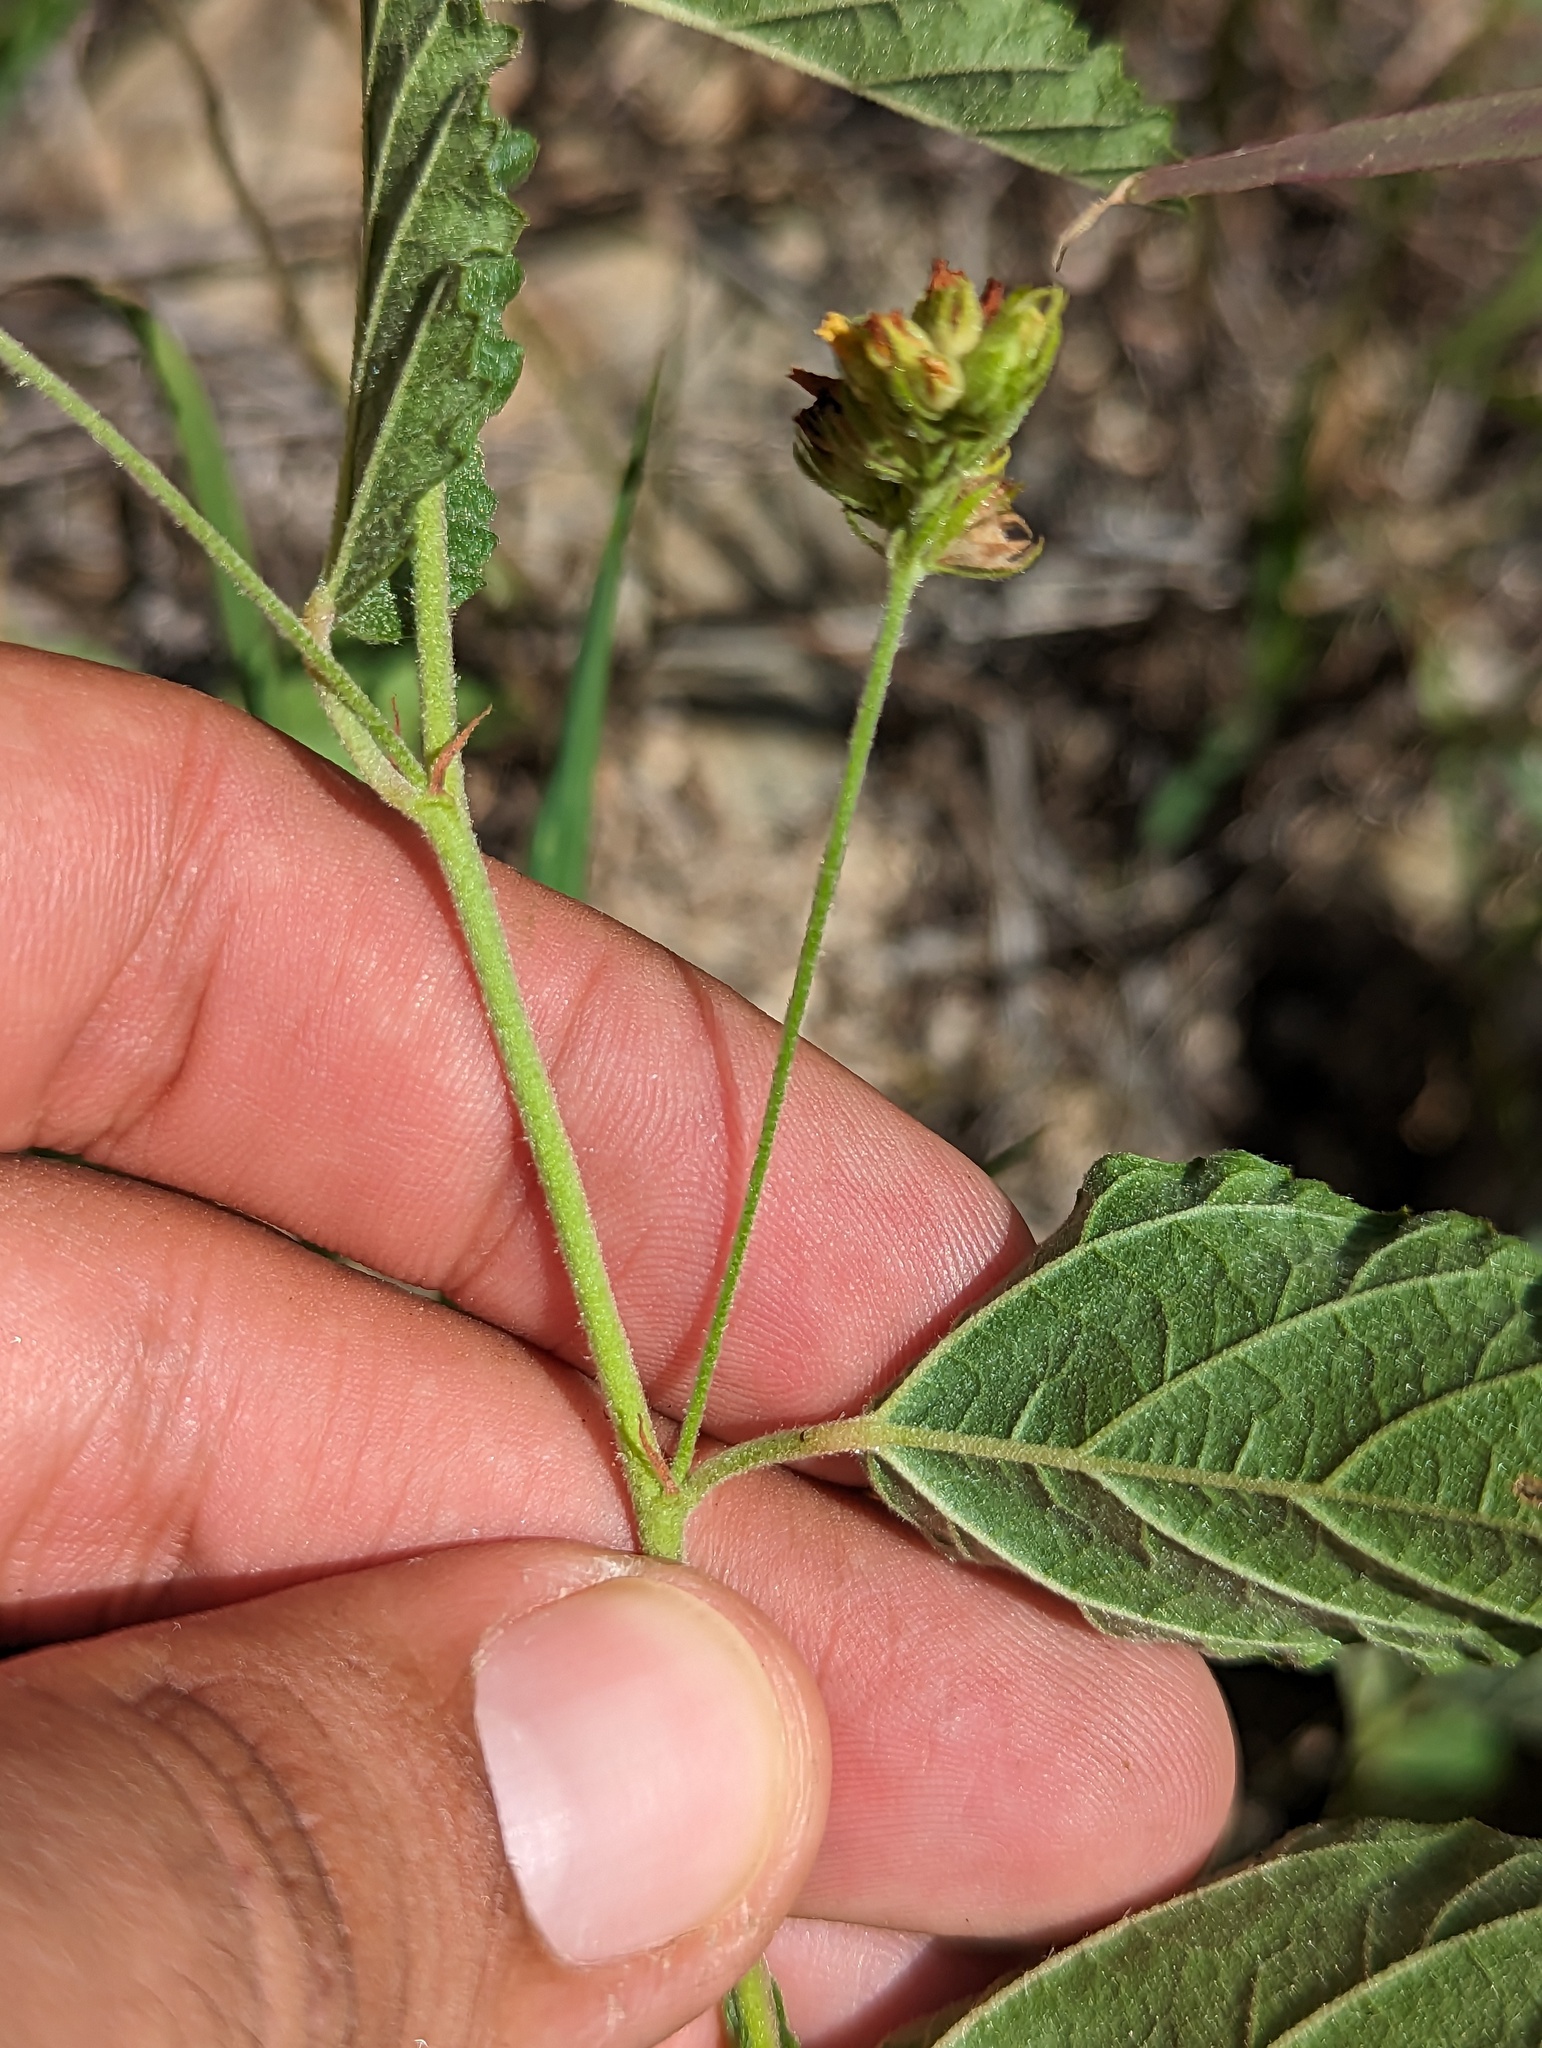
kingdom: Plantae
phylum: Tracheophyta
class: Magnoliopsida
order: Malvales
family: Malvaceae
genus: Waltheria
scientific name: Waltheria indica
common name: Leather-coat
